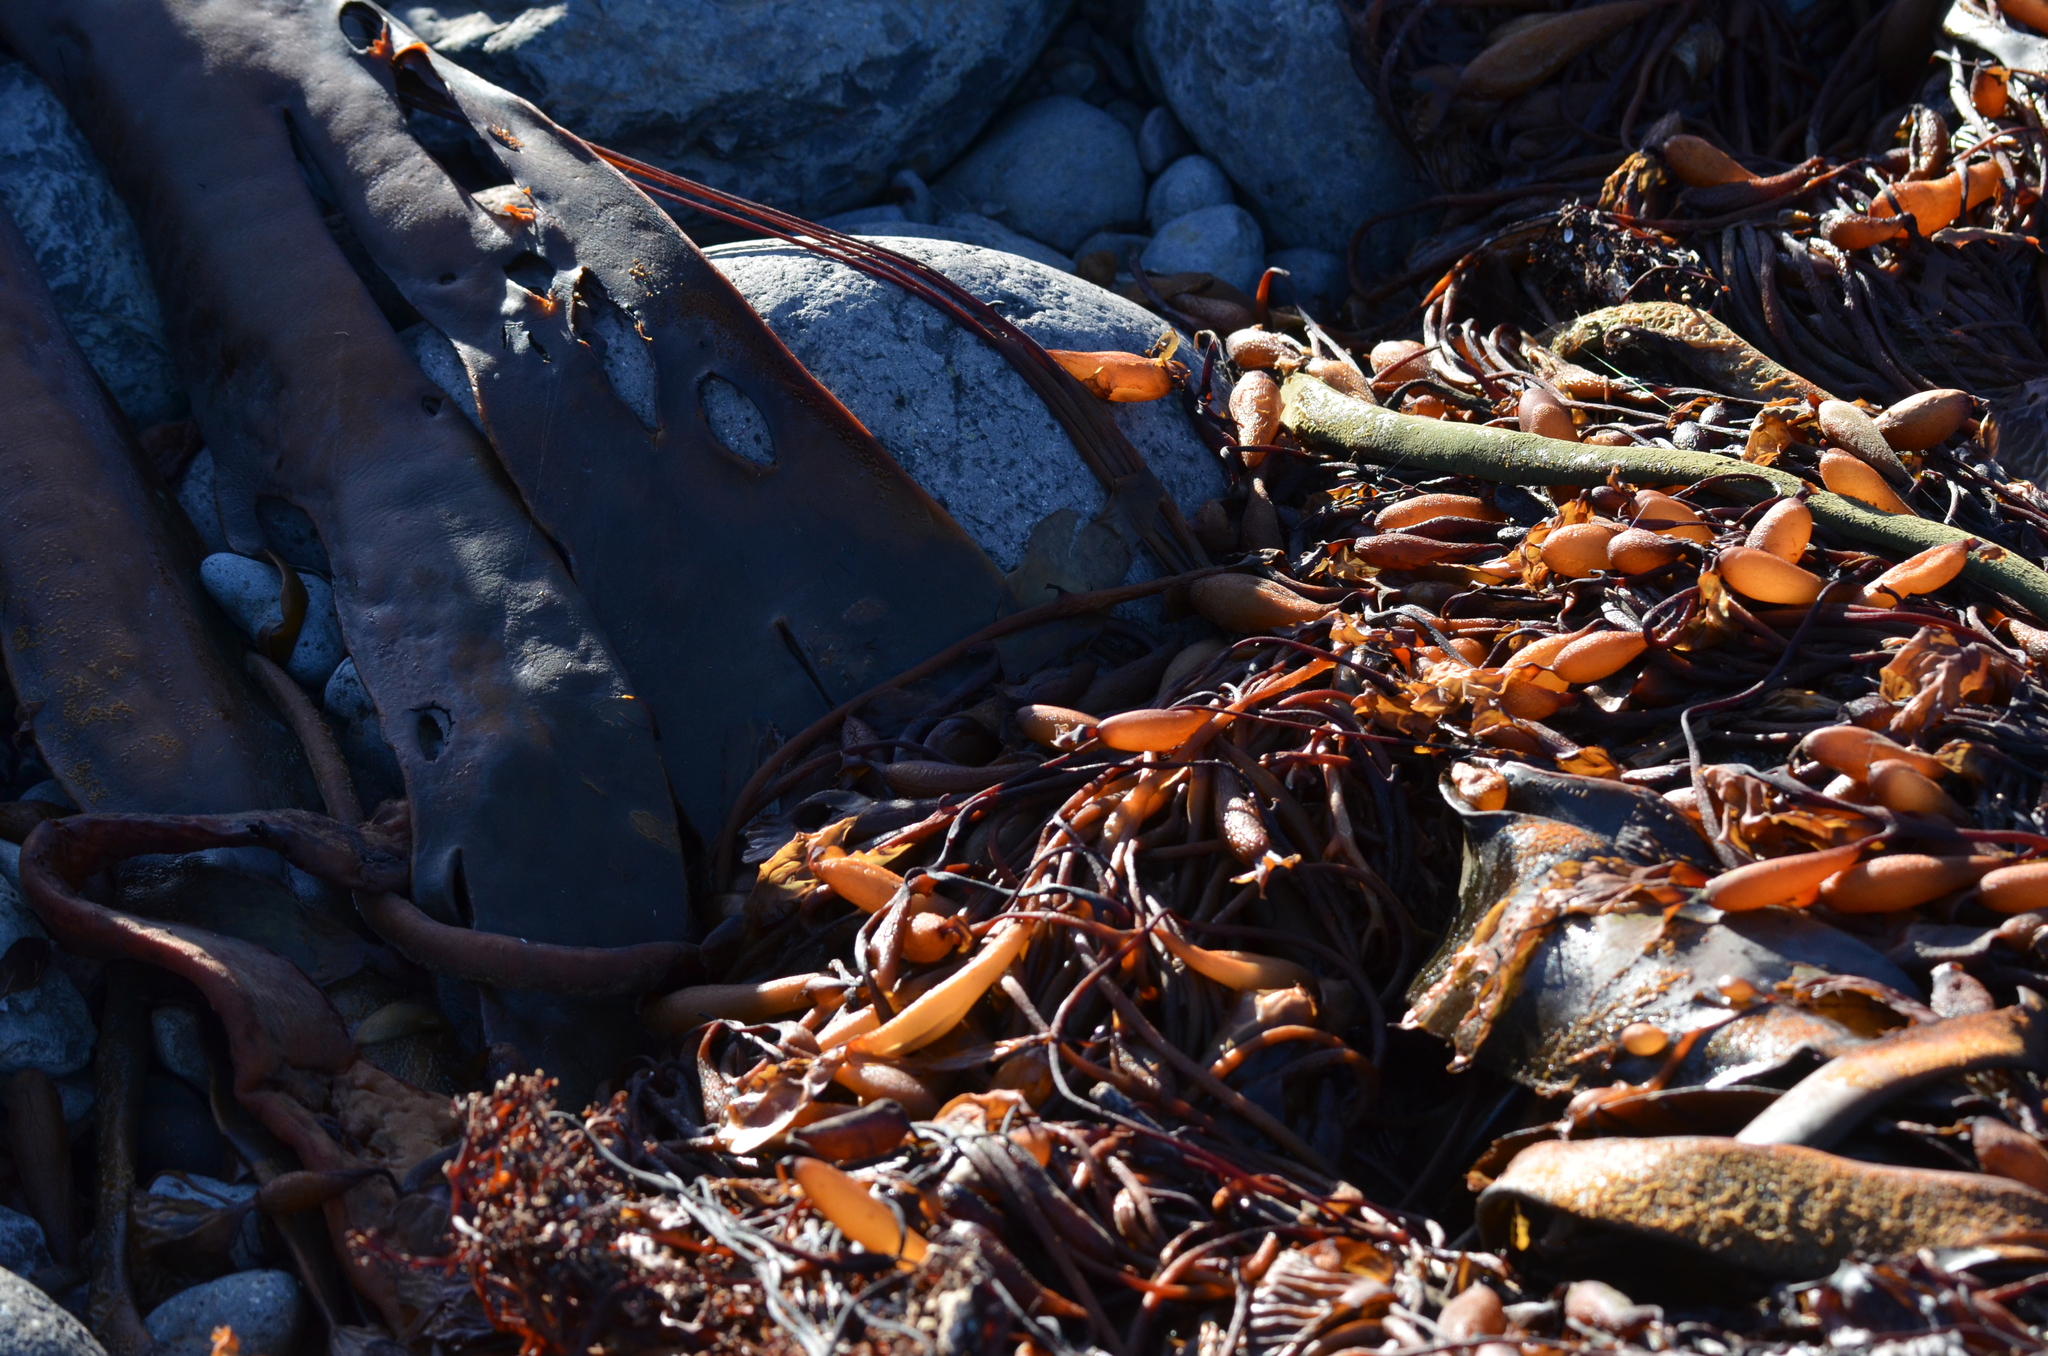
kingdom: Chromista
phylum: Ochrophyta
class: Phaeophyceae
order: Laminariales
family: Laminariaceae
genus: Macrocystis
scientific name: Macrocystis pyrifera
